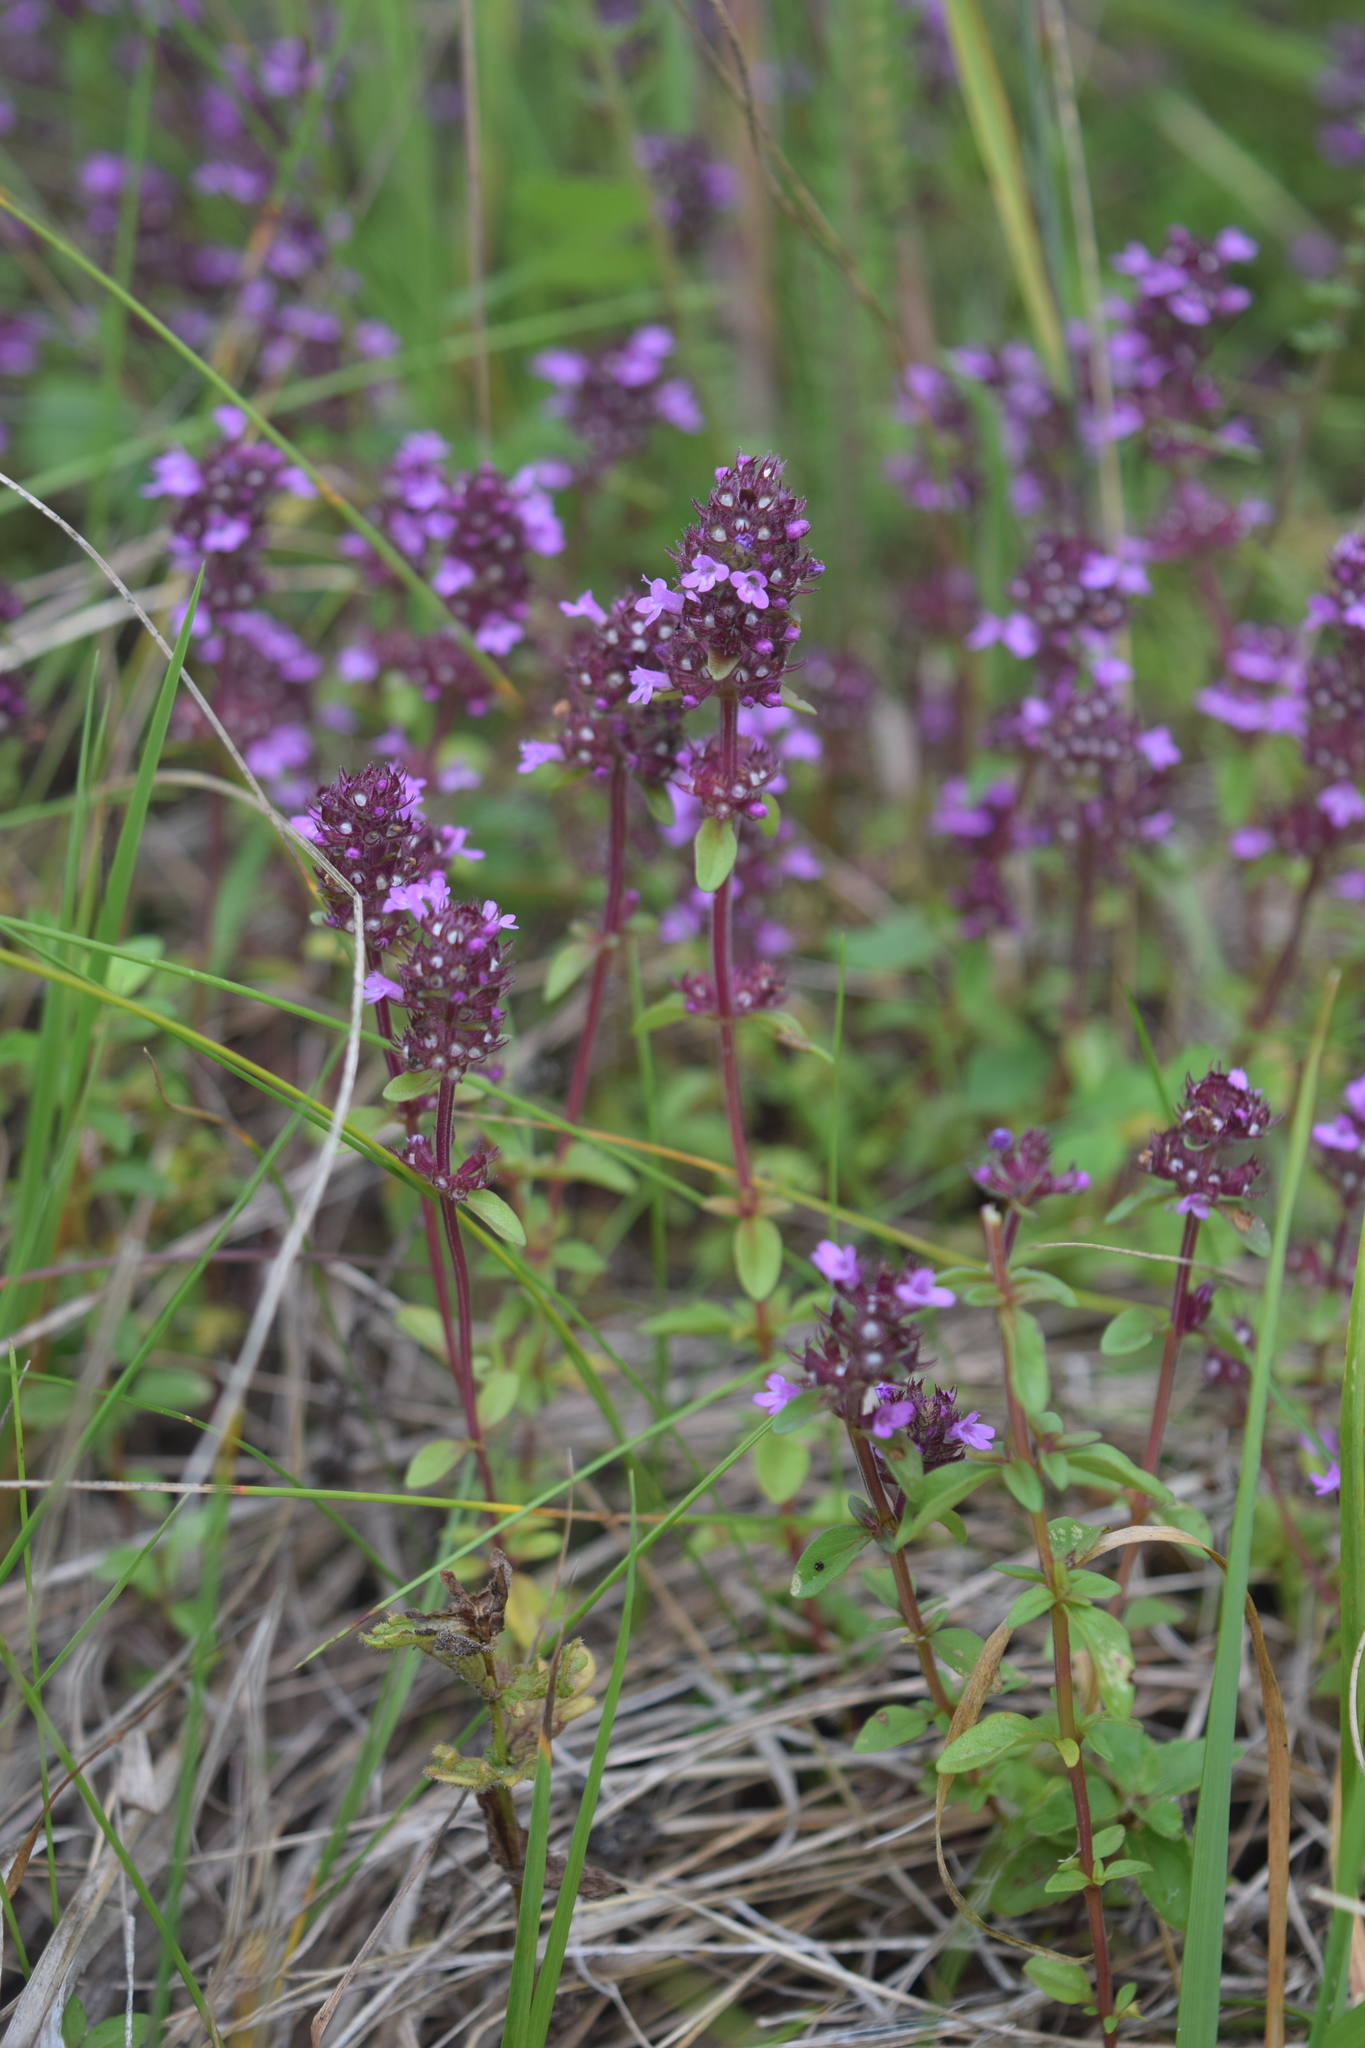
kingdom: Plantae
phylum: Tracheophyta
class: Magnoliopsida
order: Lamiales
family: Lamiaceae
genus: Thymus
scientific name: Thymus pulegioides
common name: Large thyme
